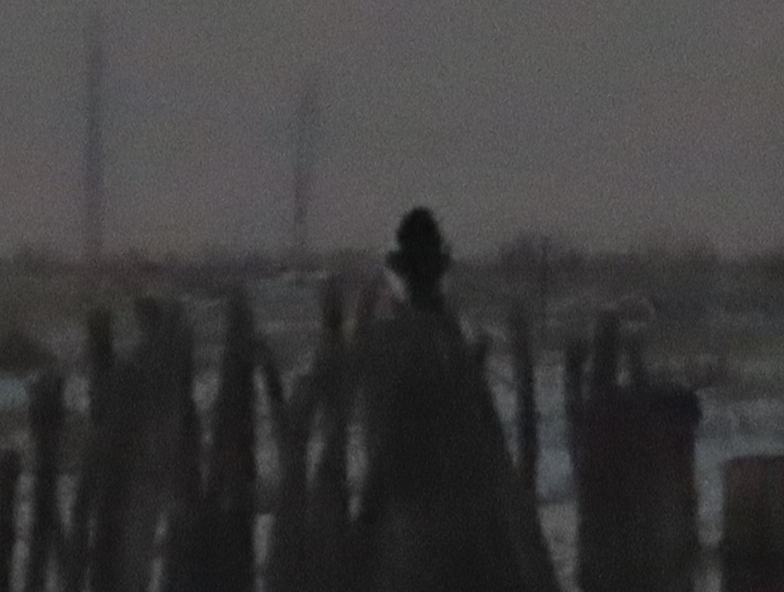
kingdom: Animalia
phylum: Chordata
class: Aves
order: Passeriformes
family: Corvidae
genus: Pica
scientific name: Pica hudsonia
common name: Black-billed magpie
